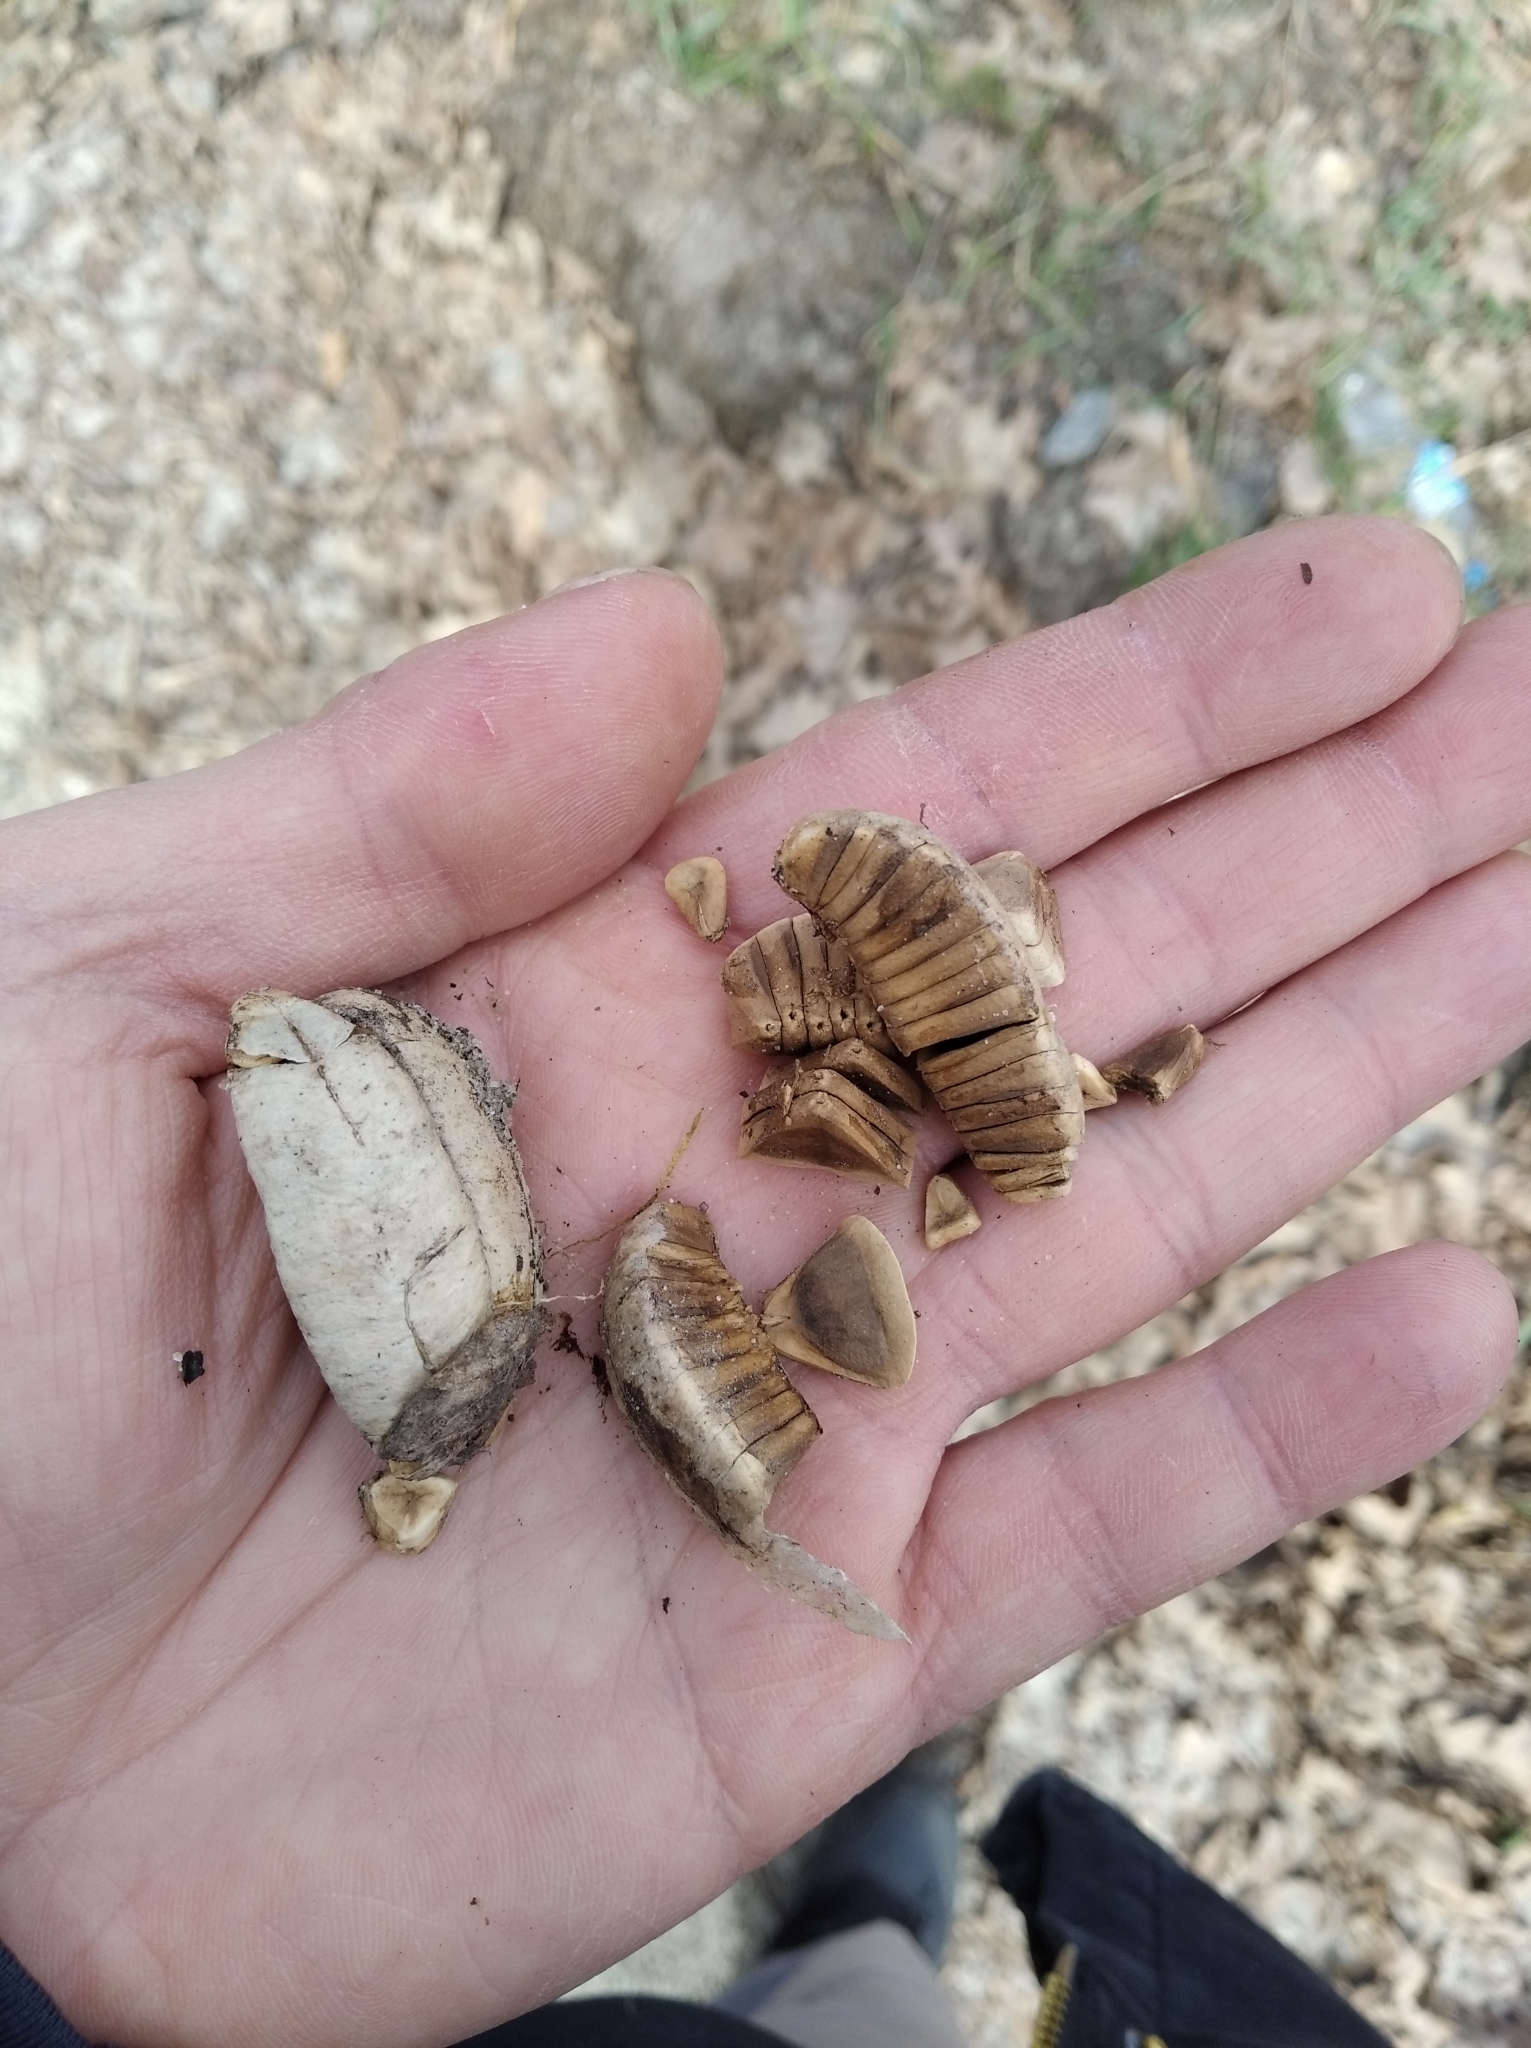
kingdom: Plantae
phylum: Tracheophyta
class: Magnoliopsida
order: Piperales
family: Aristolochiaceae
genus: Aristolochia
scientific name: Aristolochia clematitis
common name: Birthwort
